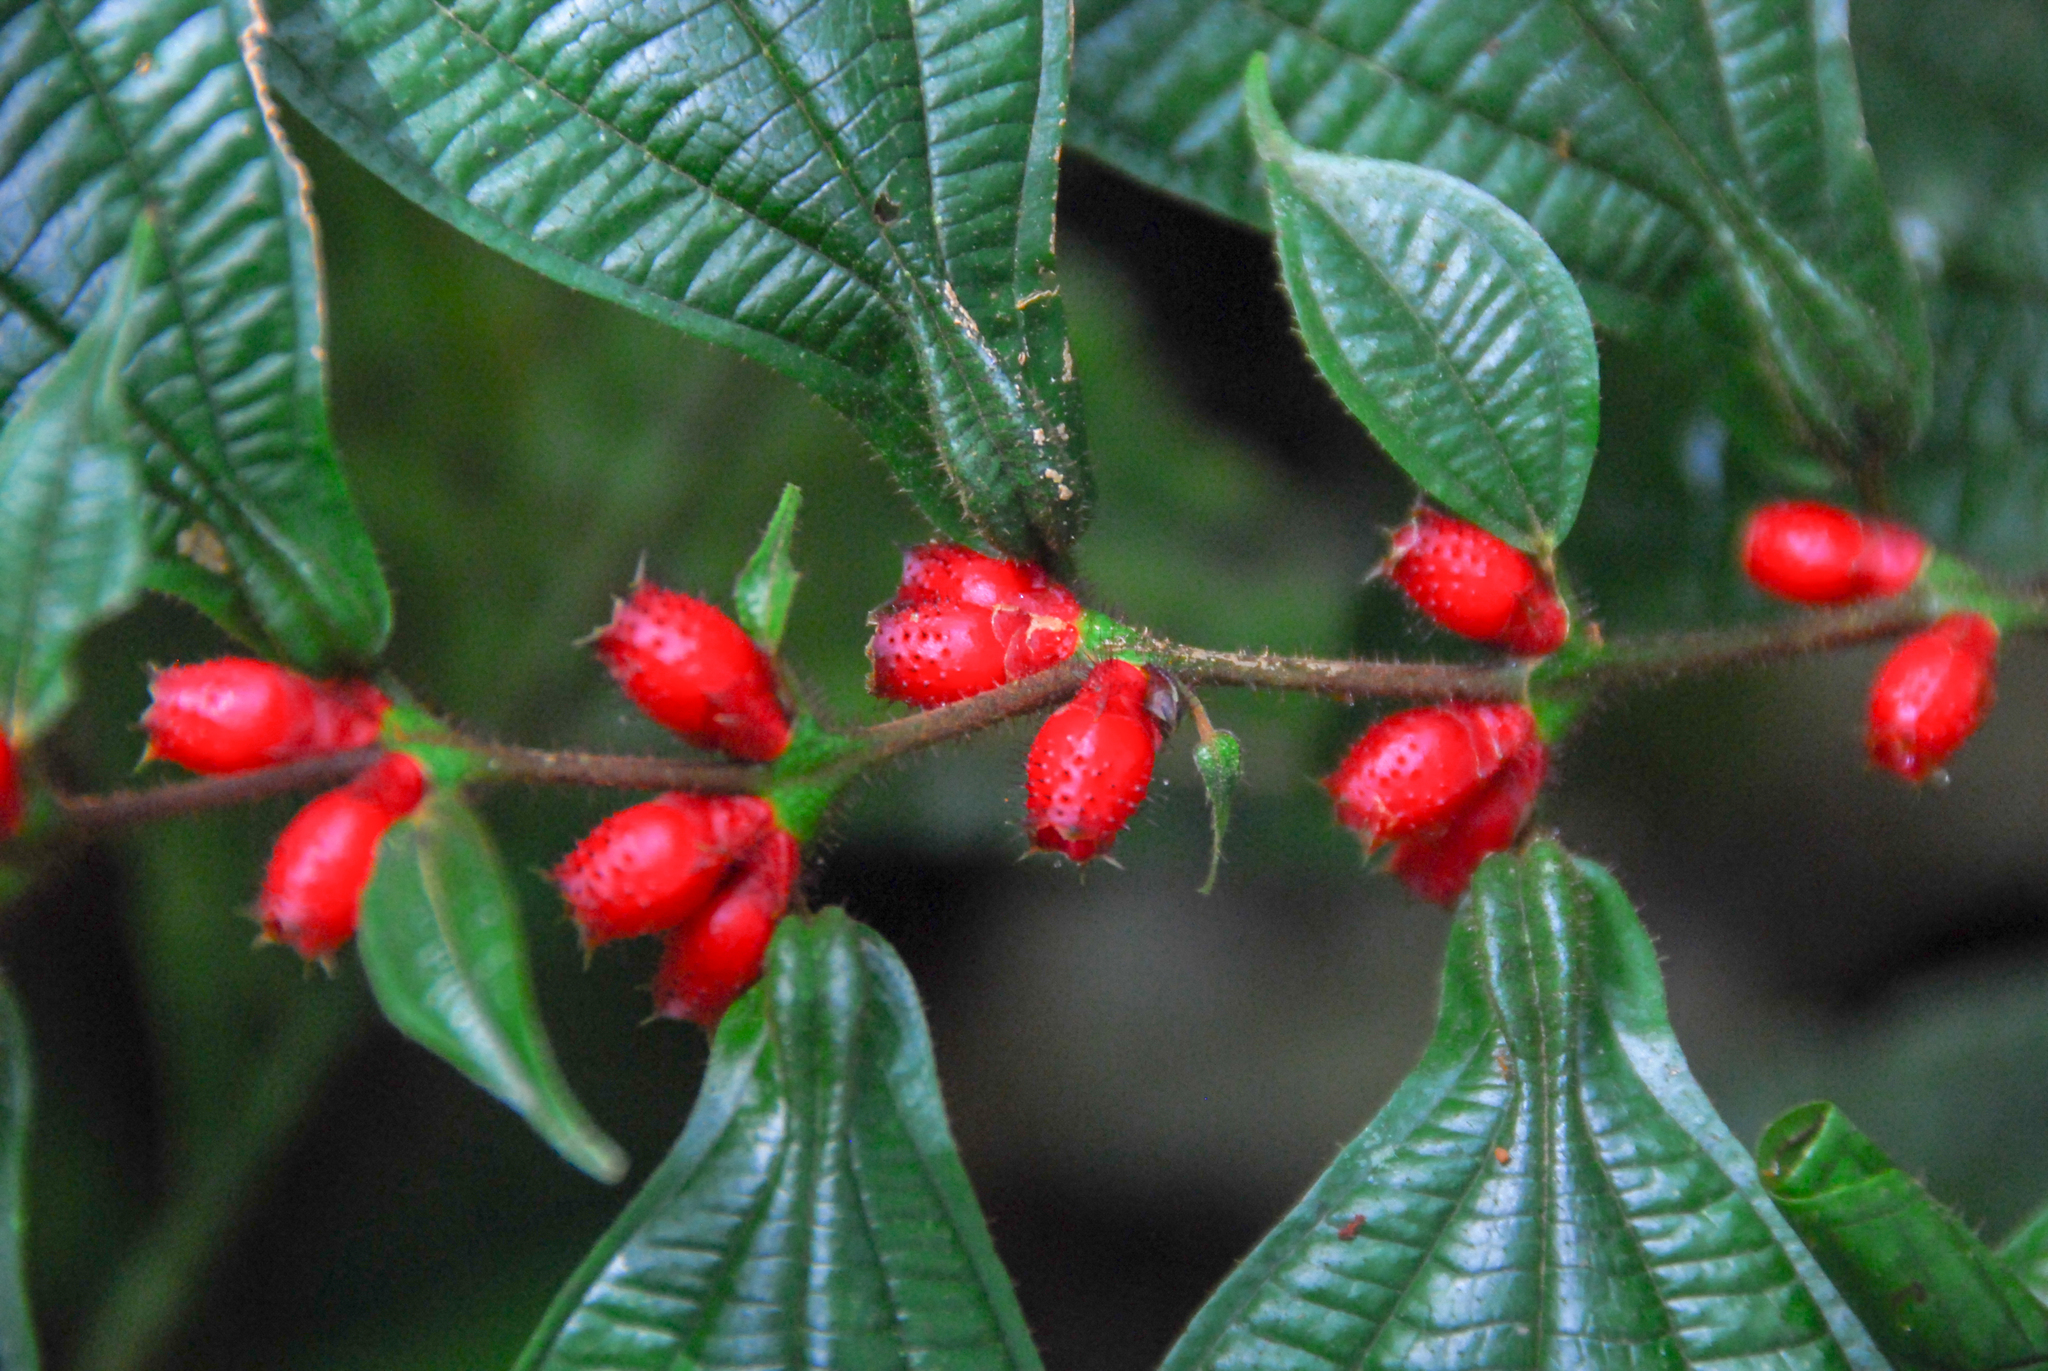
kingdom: Plantae
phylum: Tracheophyta
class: Magnoliopsida
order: Myrtales
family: Melastomataceae
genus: Miconia
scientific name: Miconia mayeta
